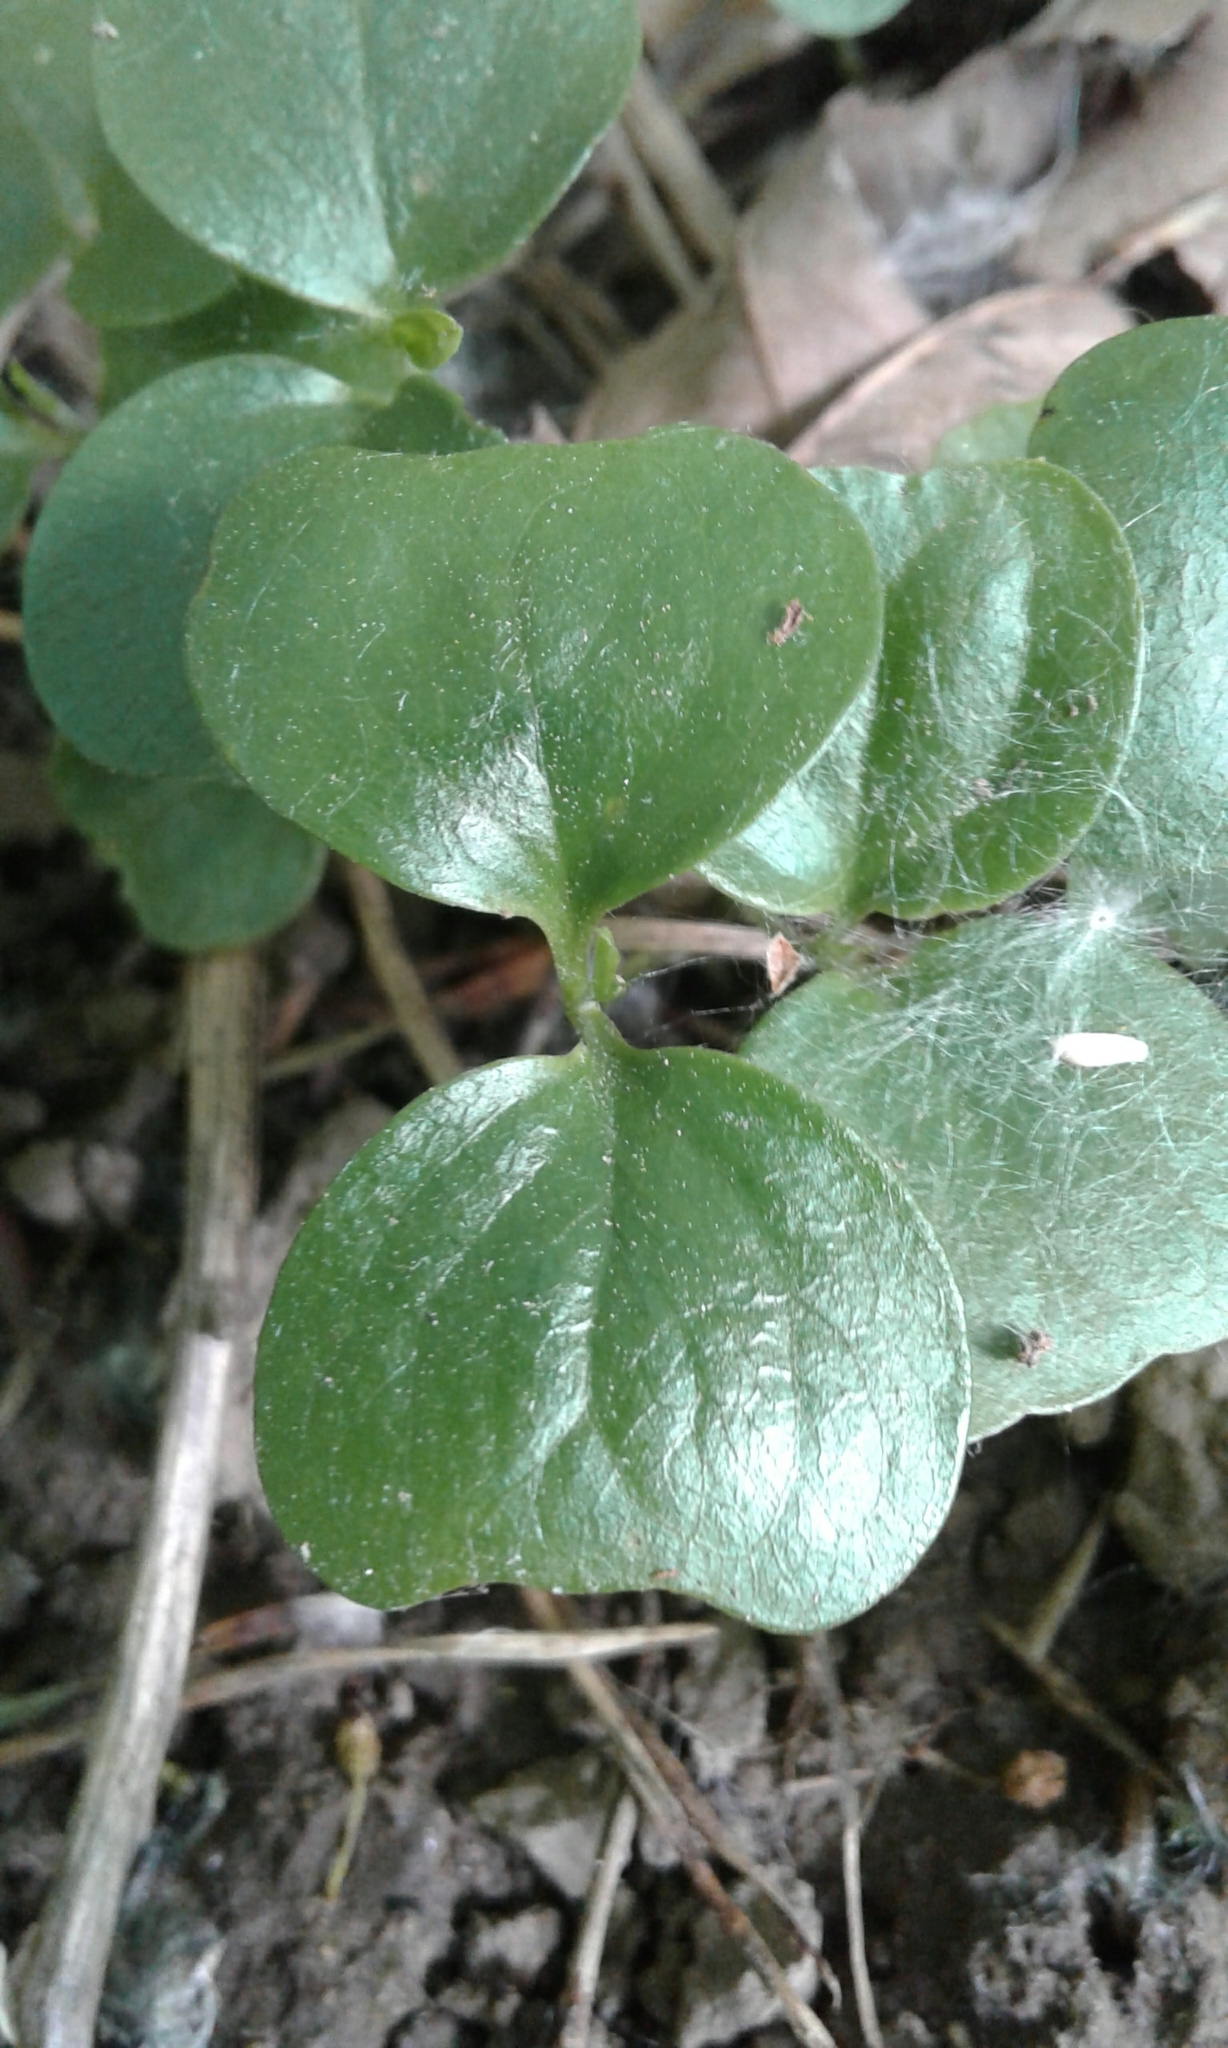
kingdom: Plantae
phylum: Tracheophyta
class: Magnoliopsida
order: Rosales
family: Rhamnaceae
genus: Rhamnus
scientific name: Rhamnus cathartica
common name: Common buckthorn
